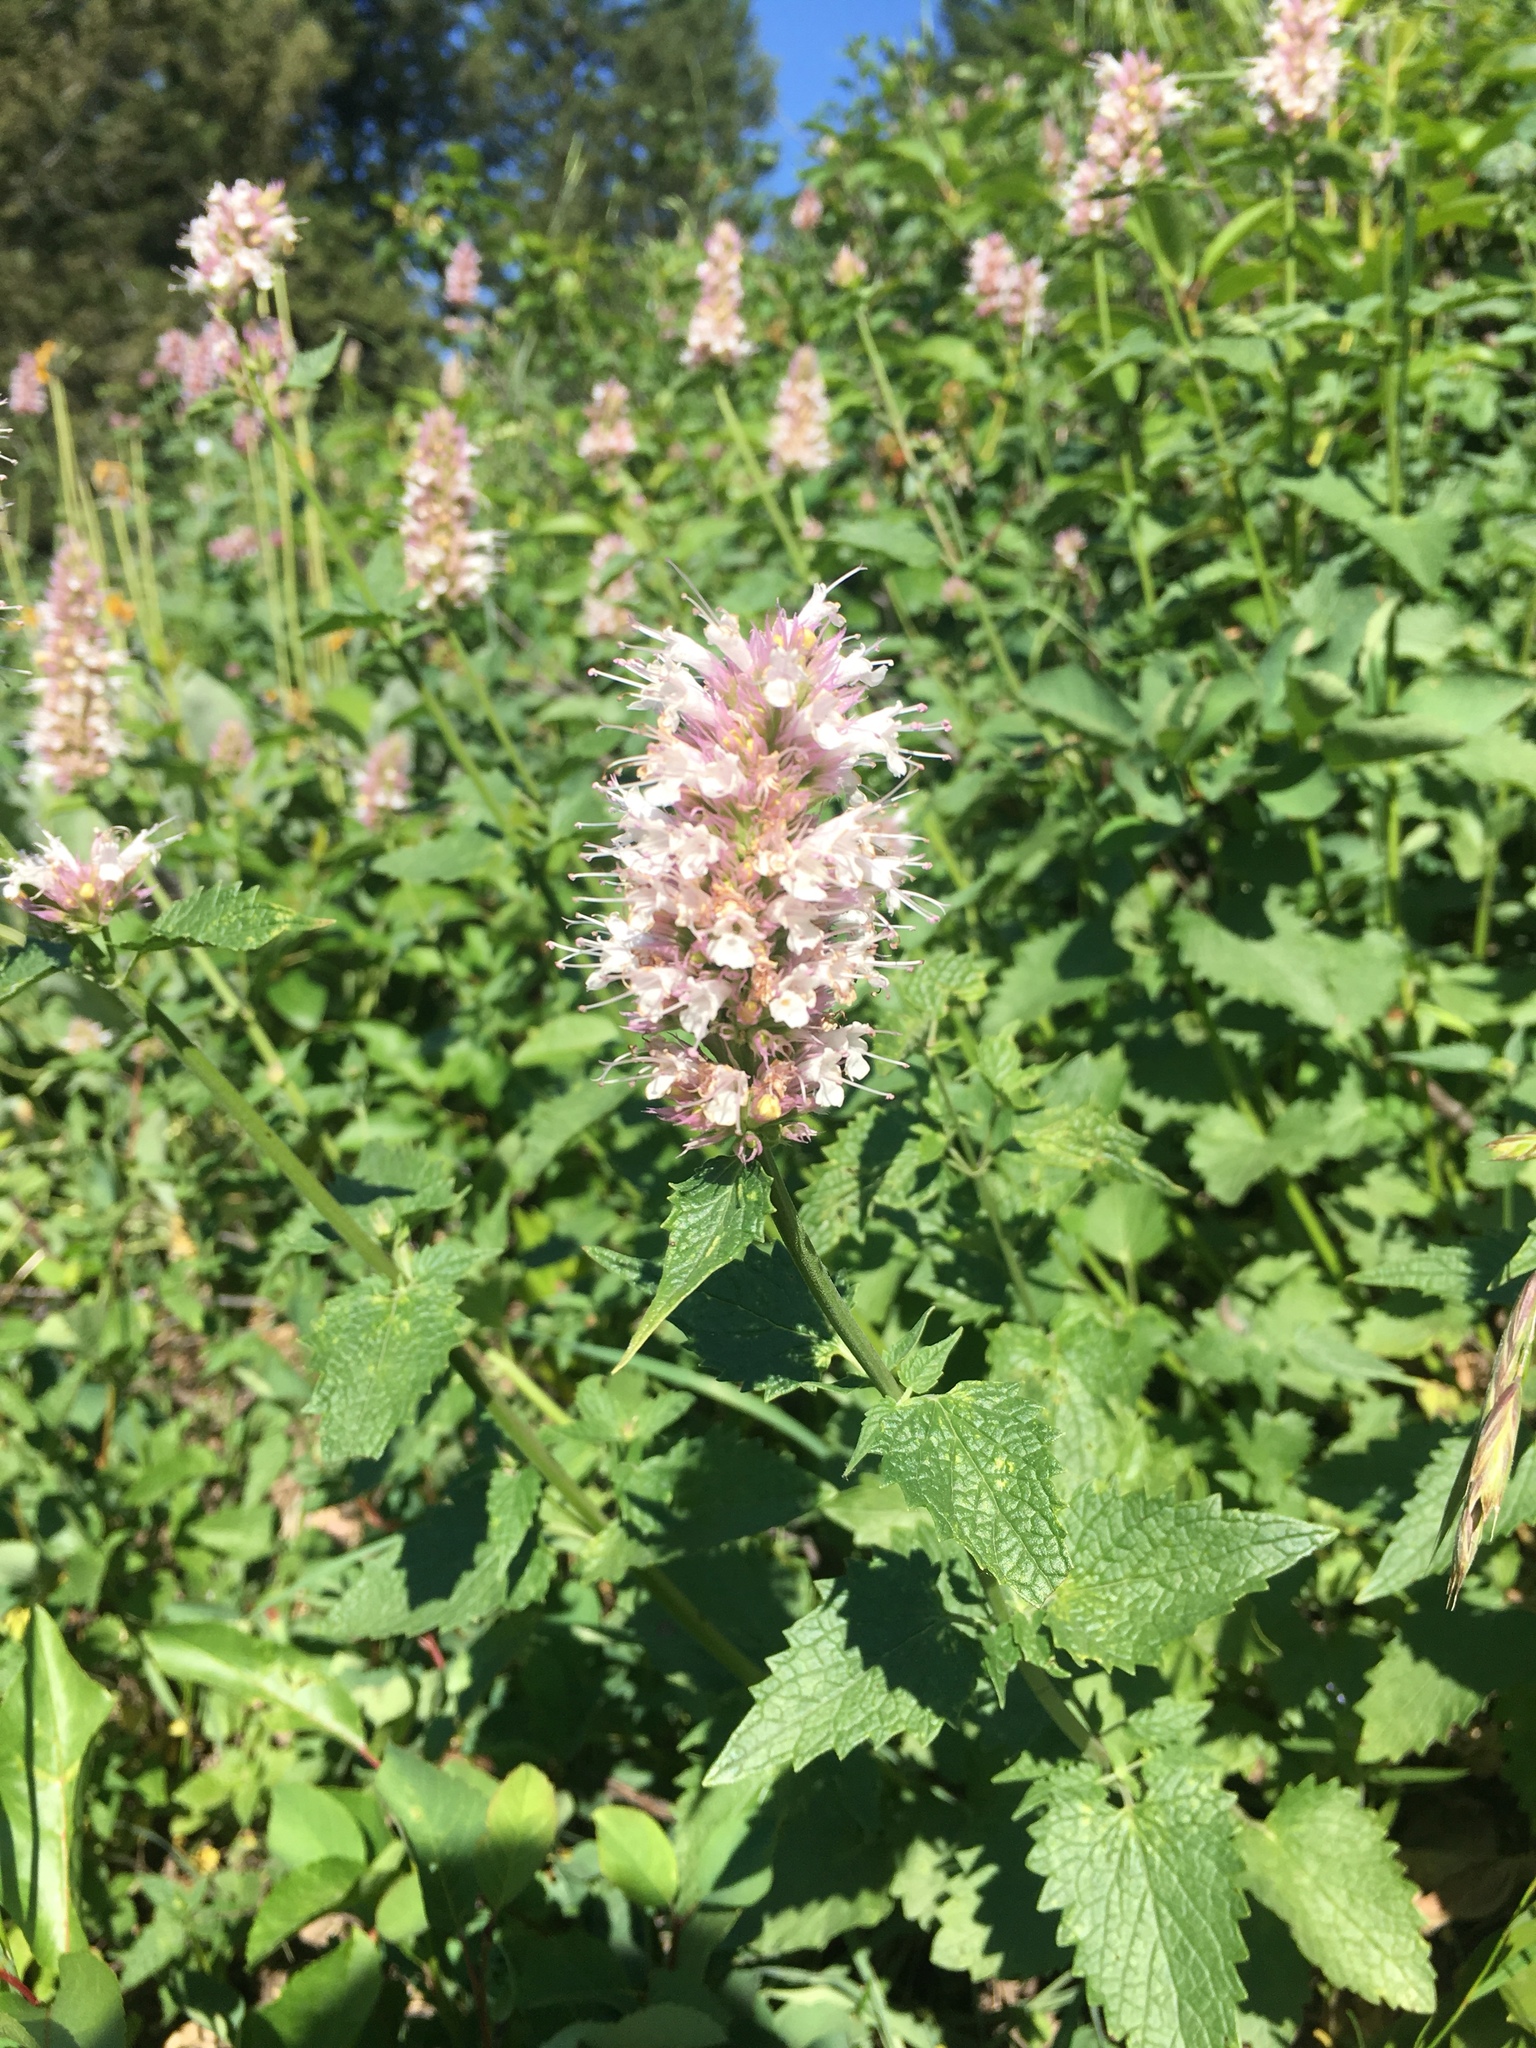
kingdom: Plantae
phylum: Tracheophyta
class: Magnoliopsida
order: Lamiales
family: Lamiaceae
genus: Agastache
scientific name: Agastache urticifolia
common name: Horsemint giant hyssop
